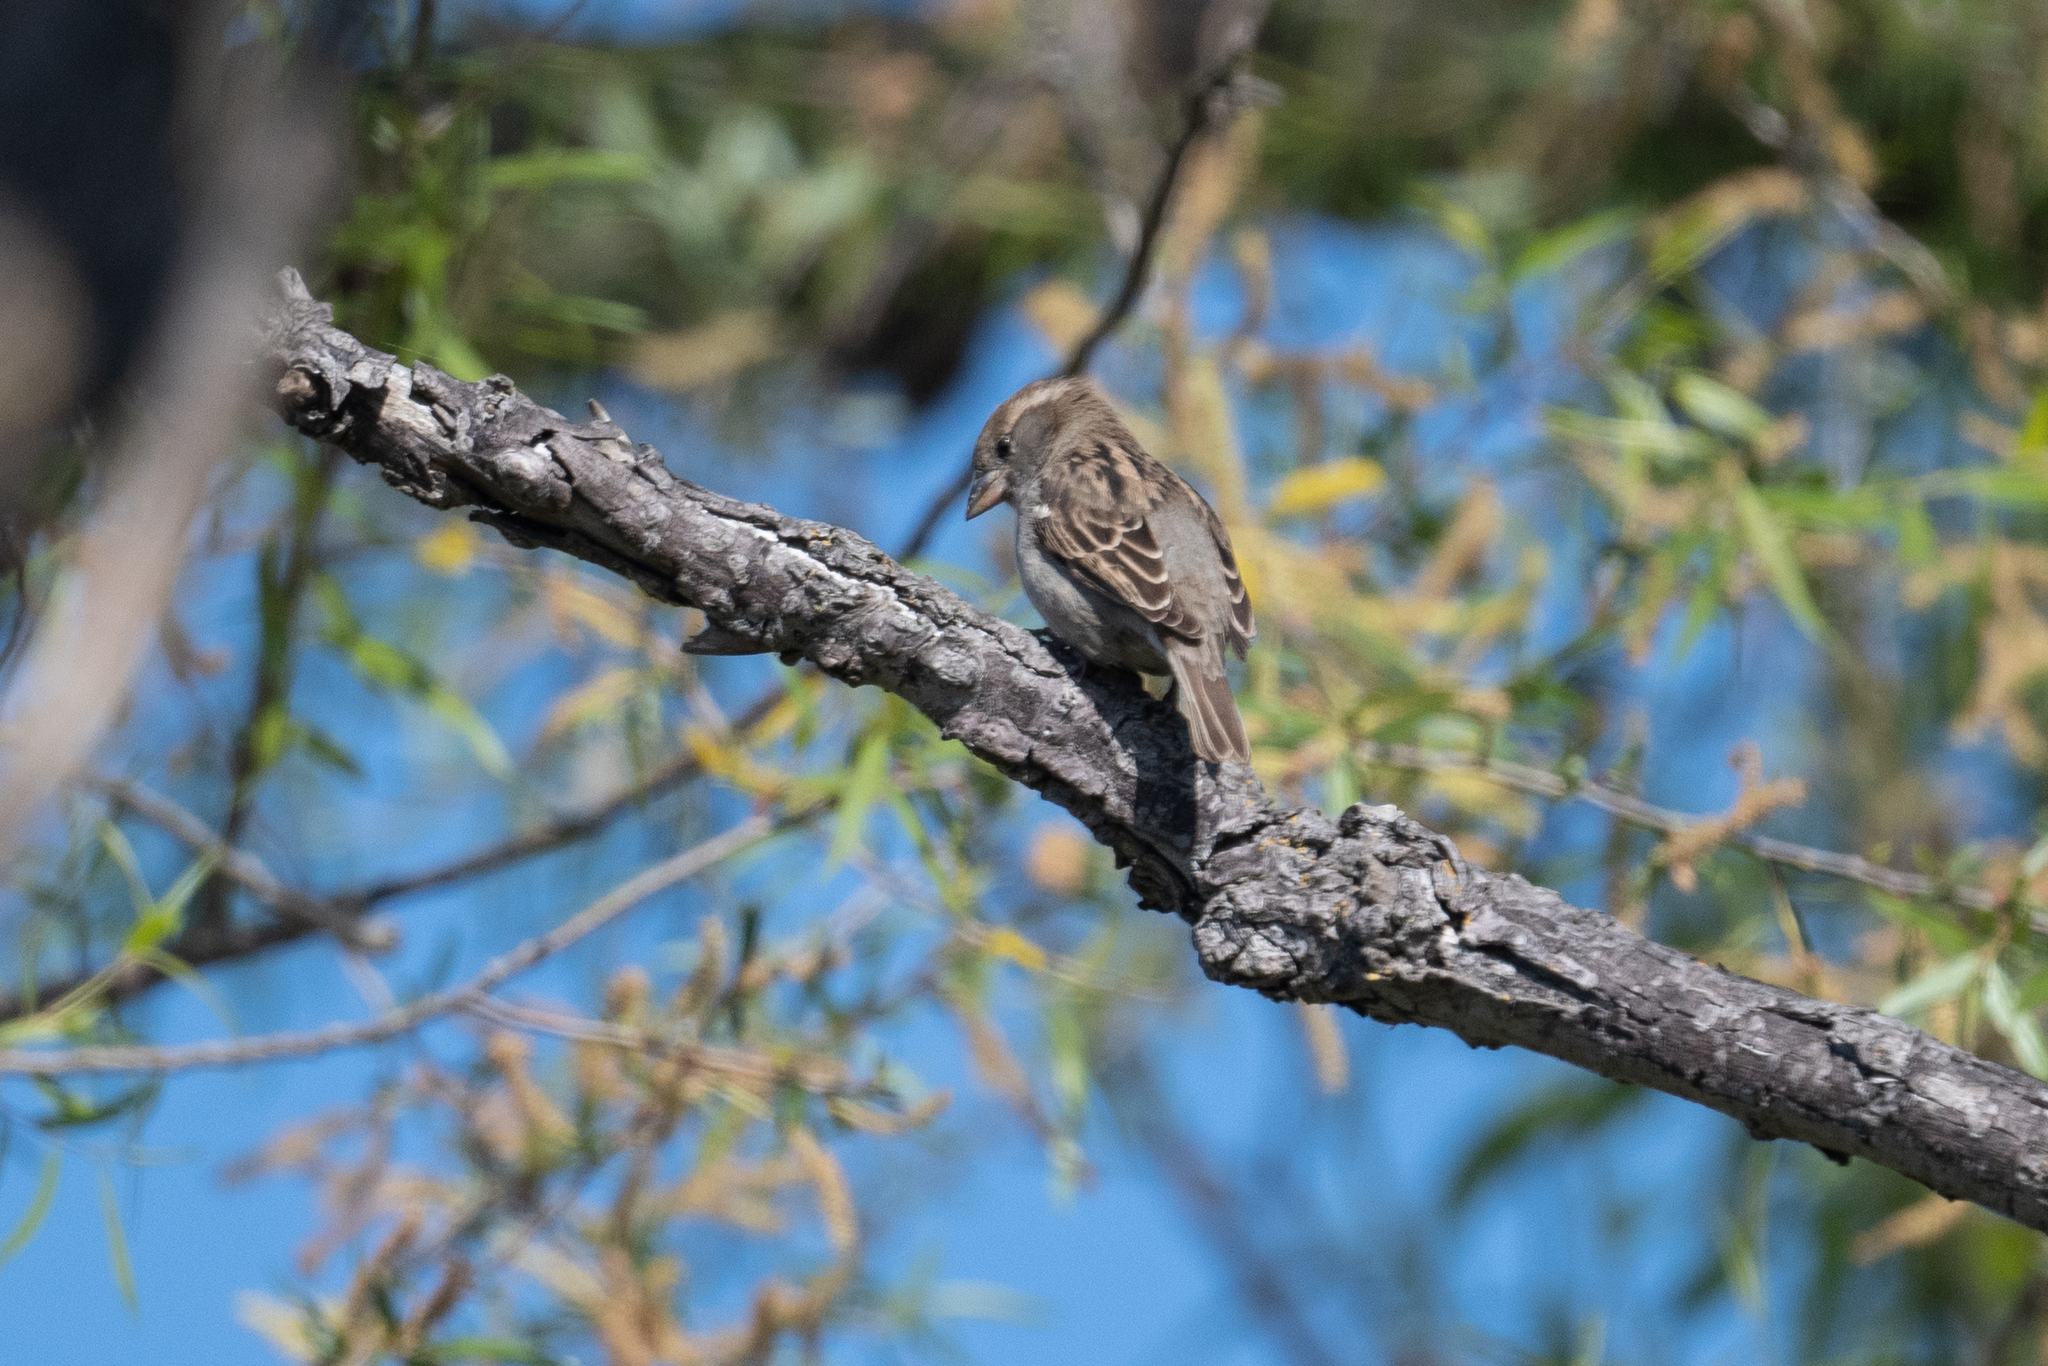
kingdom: Animalia
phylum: Chordata
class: Aves
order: Passeriformes
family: Passeridae
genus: Passer
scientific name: Passer domesticus
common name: House sparrow
